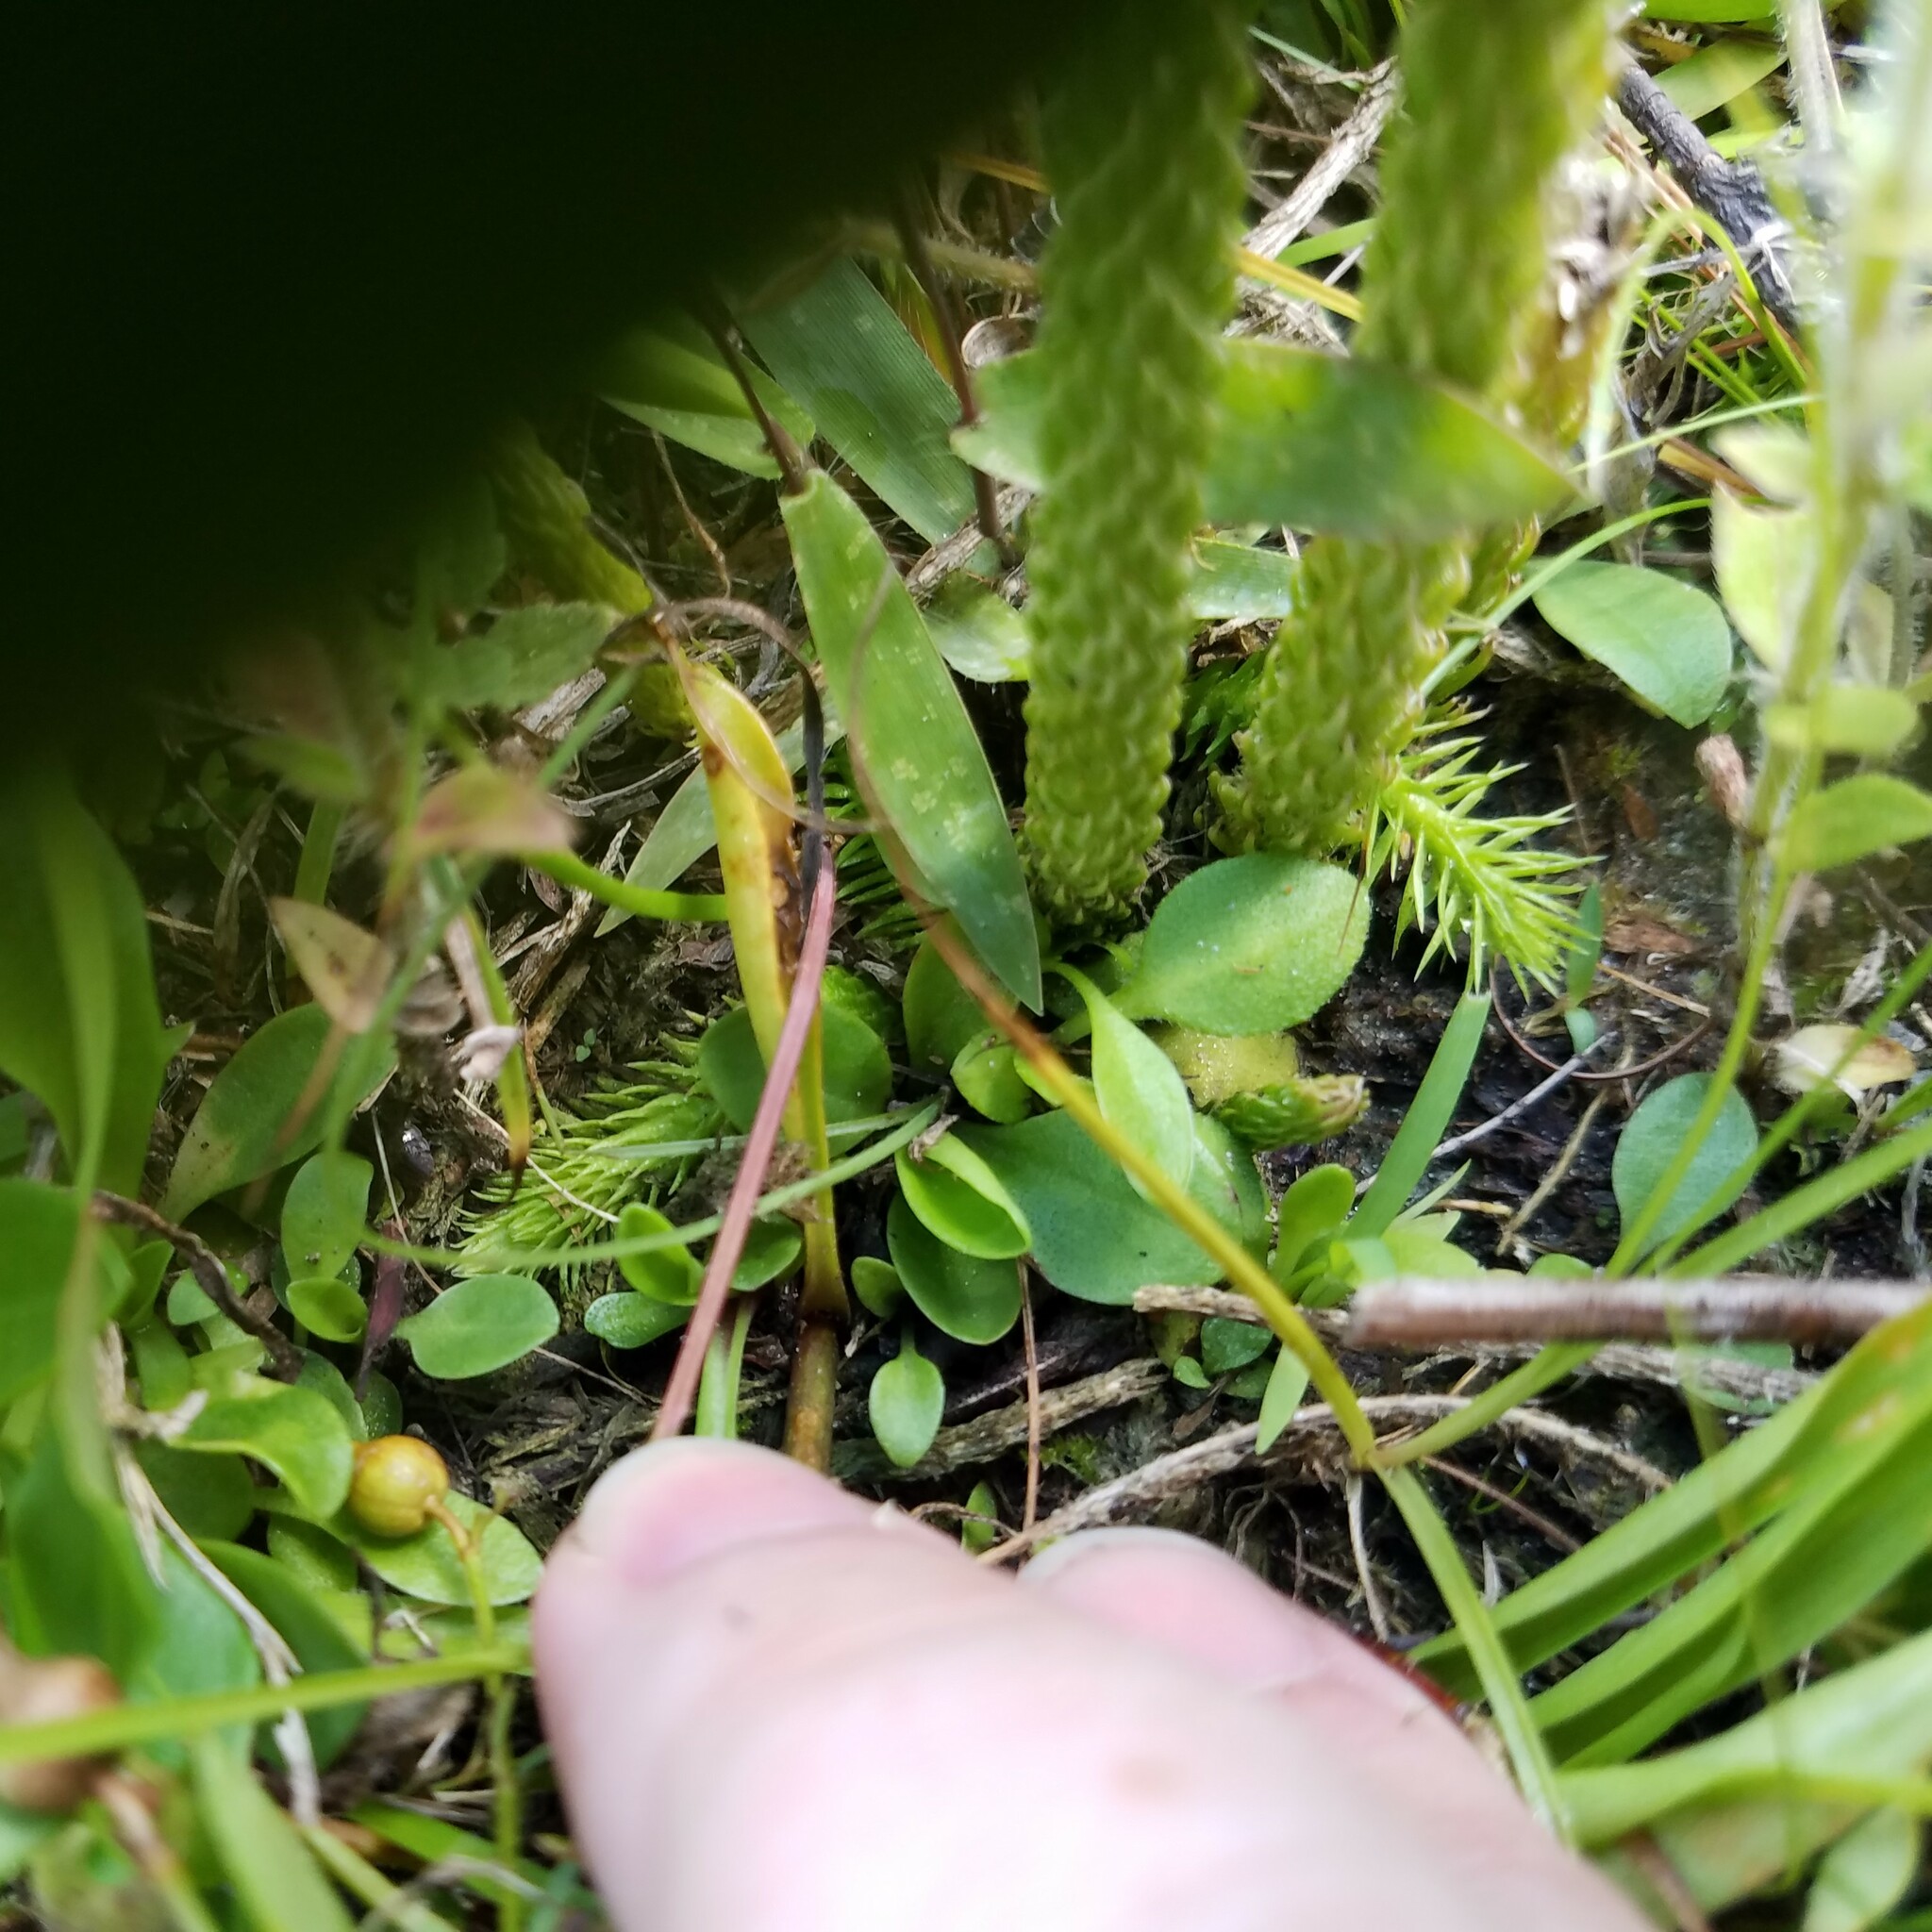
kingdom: Plantae
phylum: Tracheophyta
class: Lycopodiopsida
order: Lycopodiales
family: Lycopodiaceae
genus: Lycopodiella
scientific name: Lycopodiella appressa
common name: Appressed bog clubmoss
